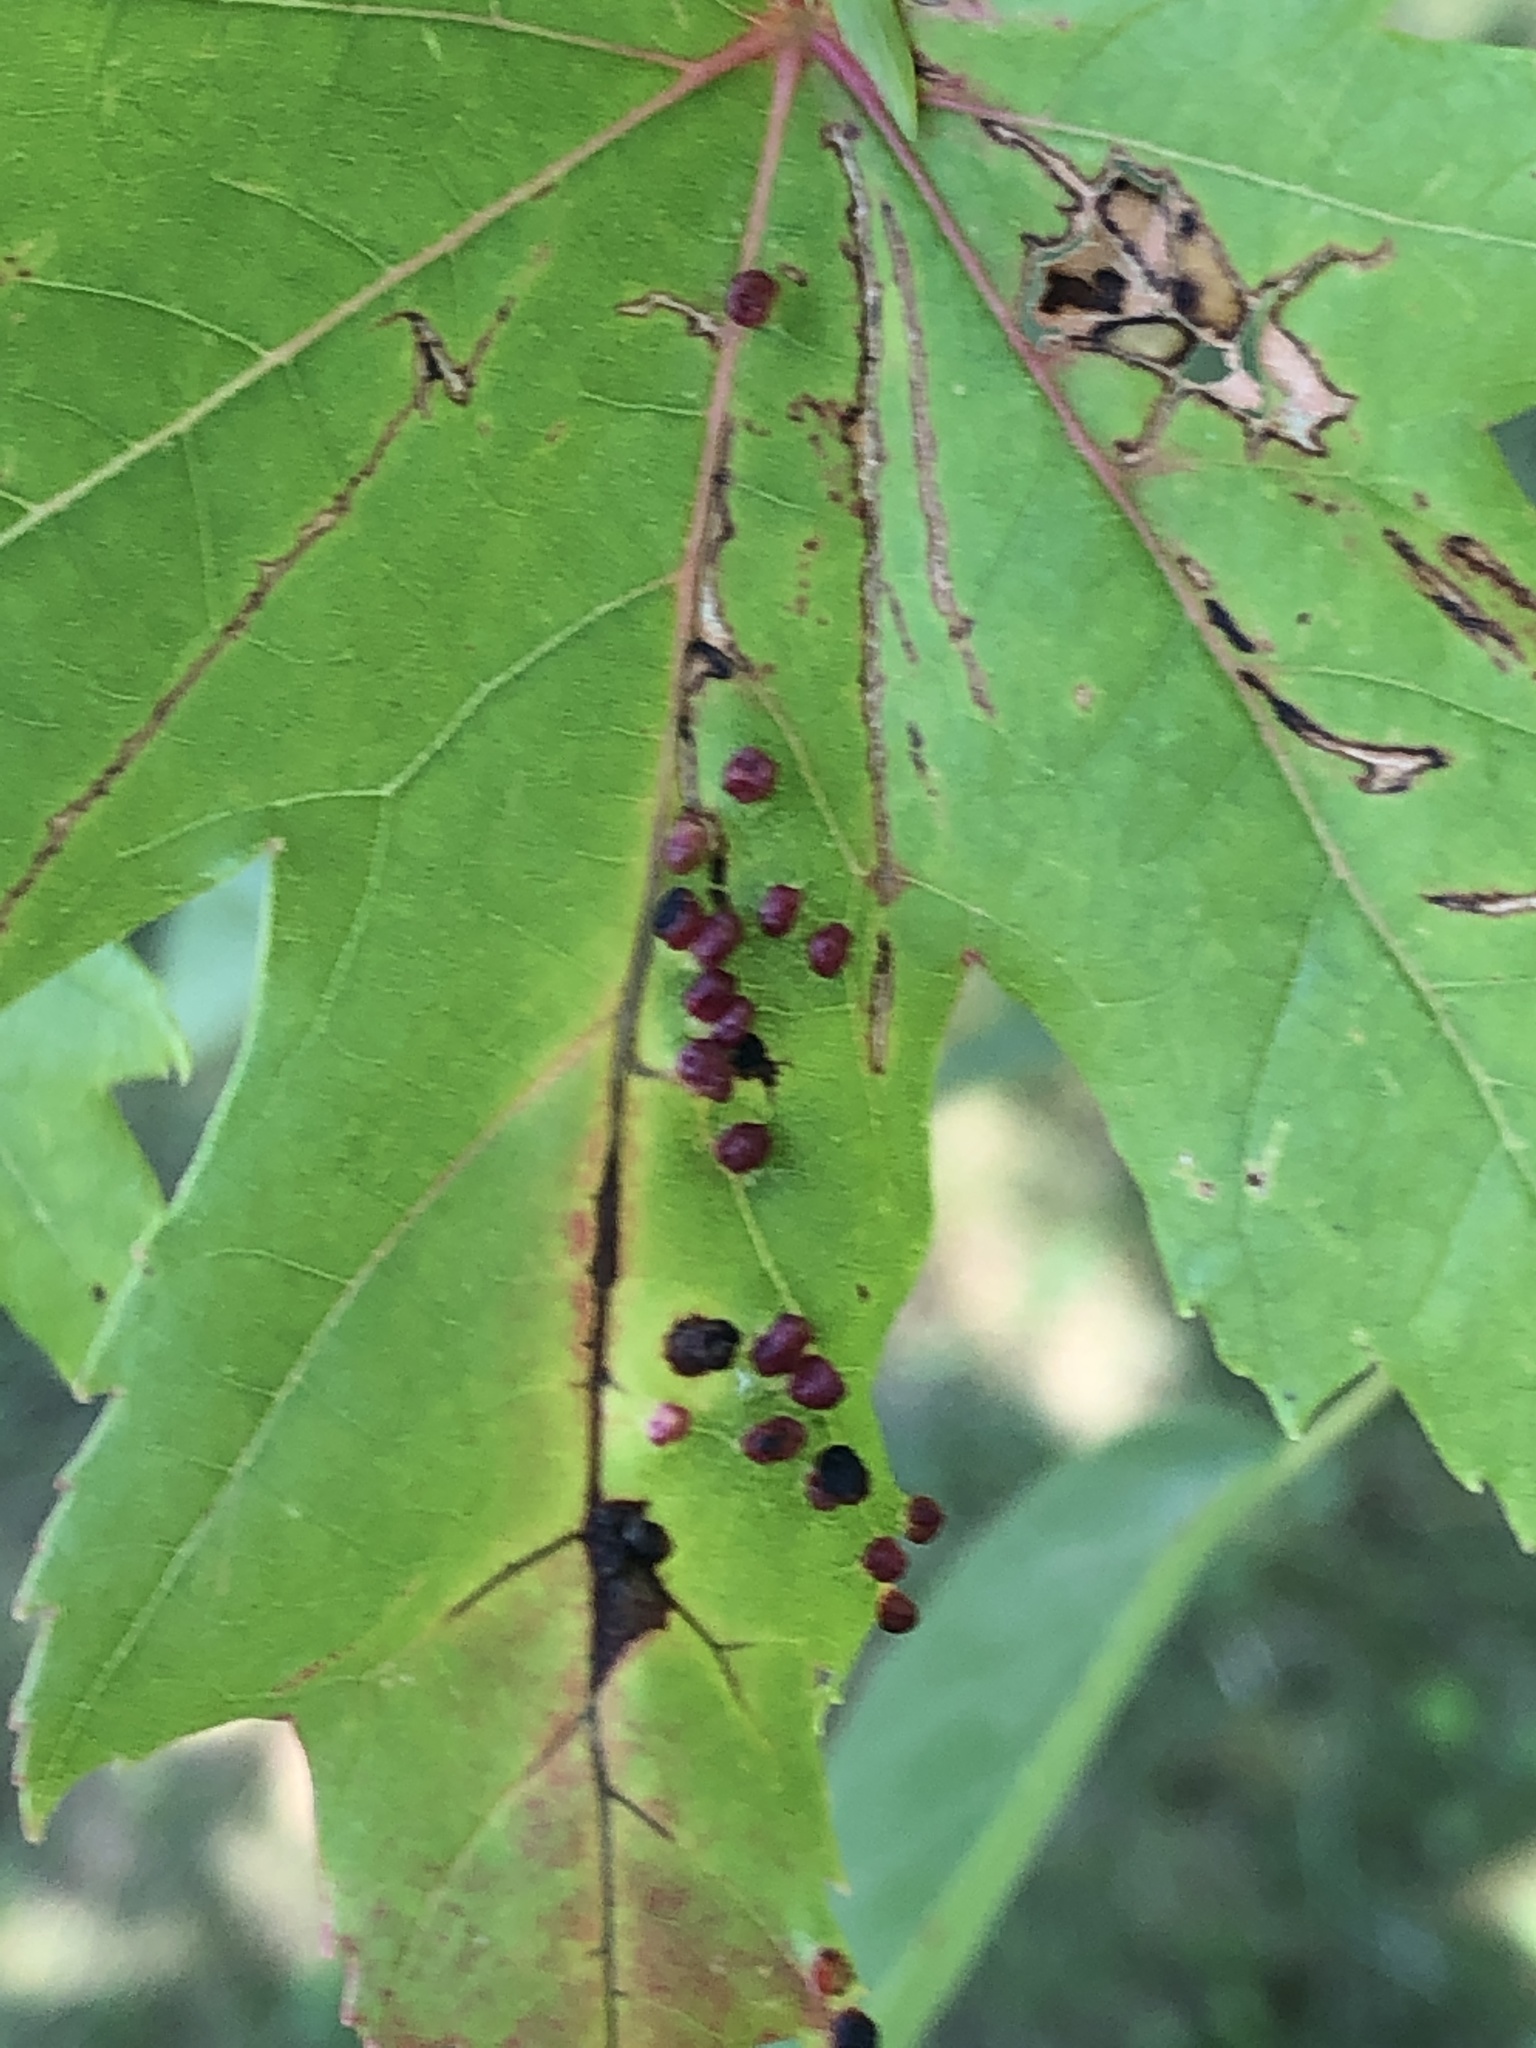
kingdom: Animalia
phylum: Arthropoda
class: Arachnida
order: Trombidiformes
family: Eriophyidae
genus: Vasates
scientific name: Vasates quadripedes
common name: Maple bladder gall mite
